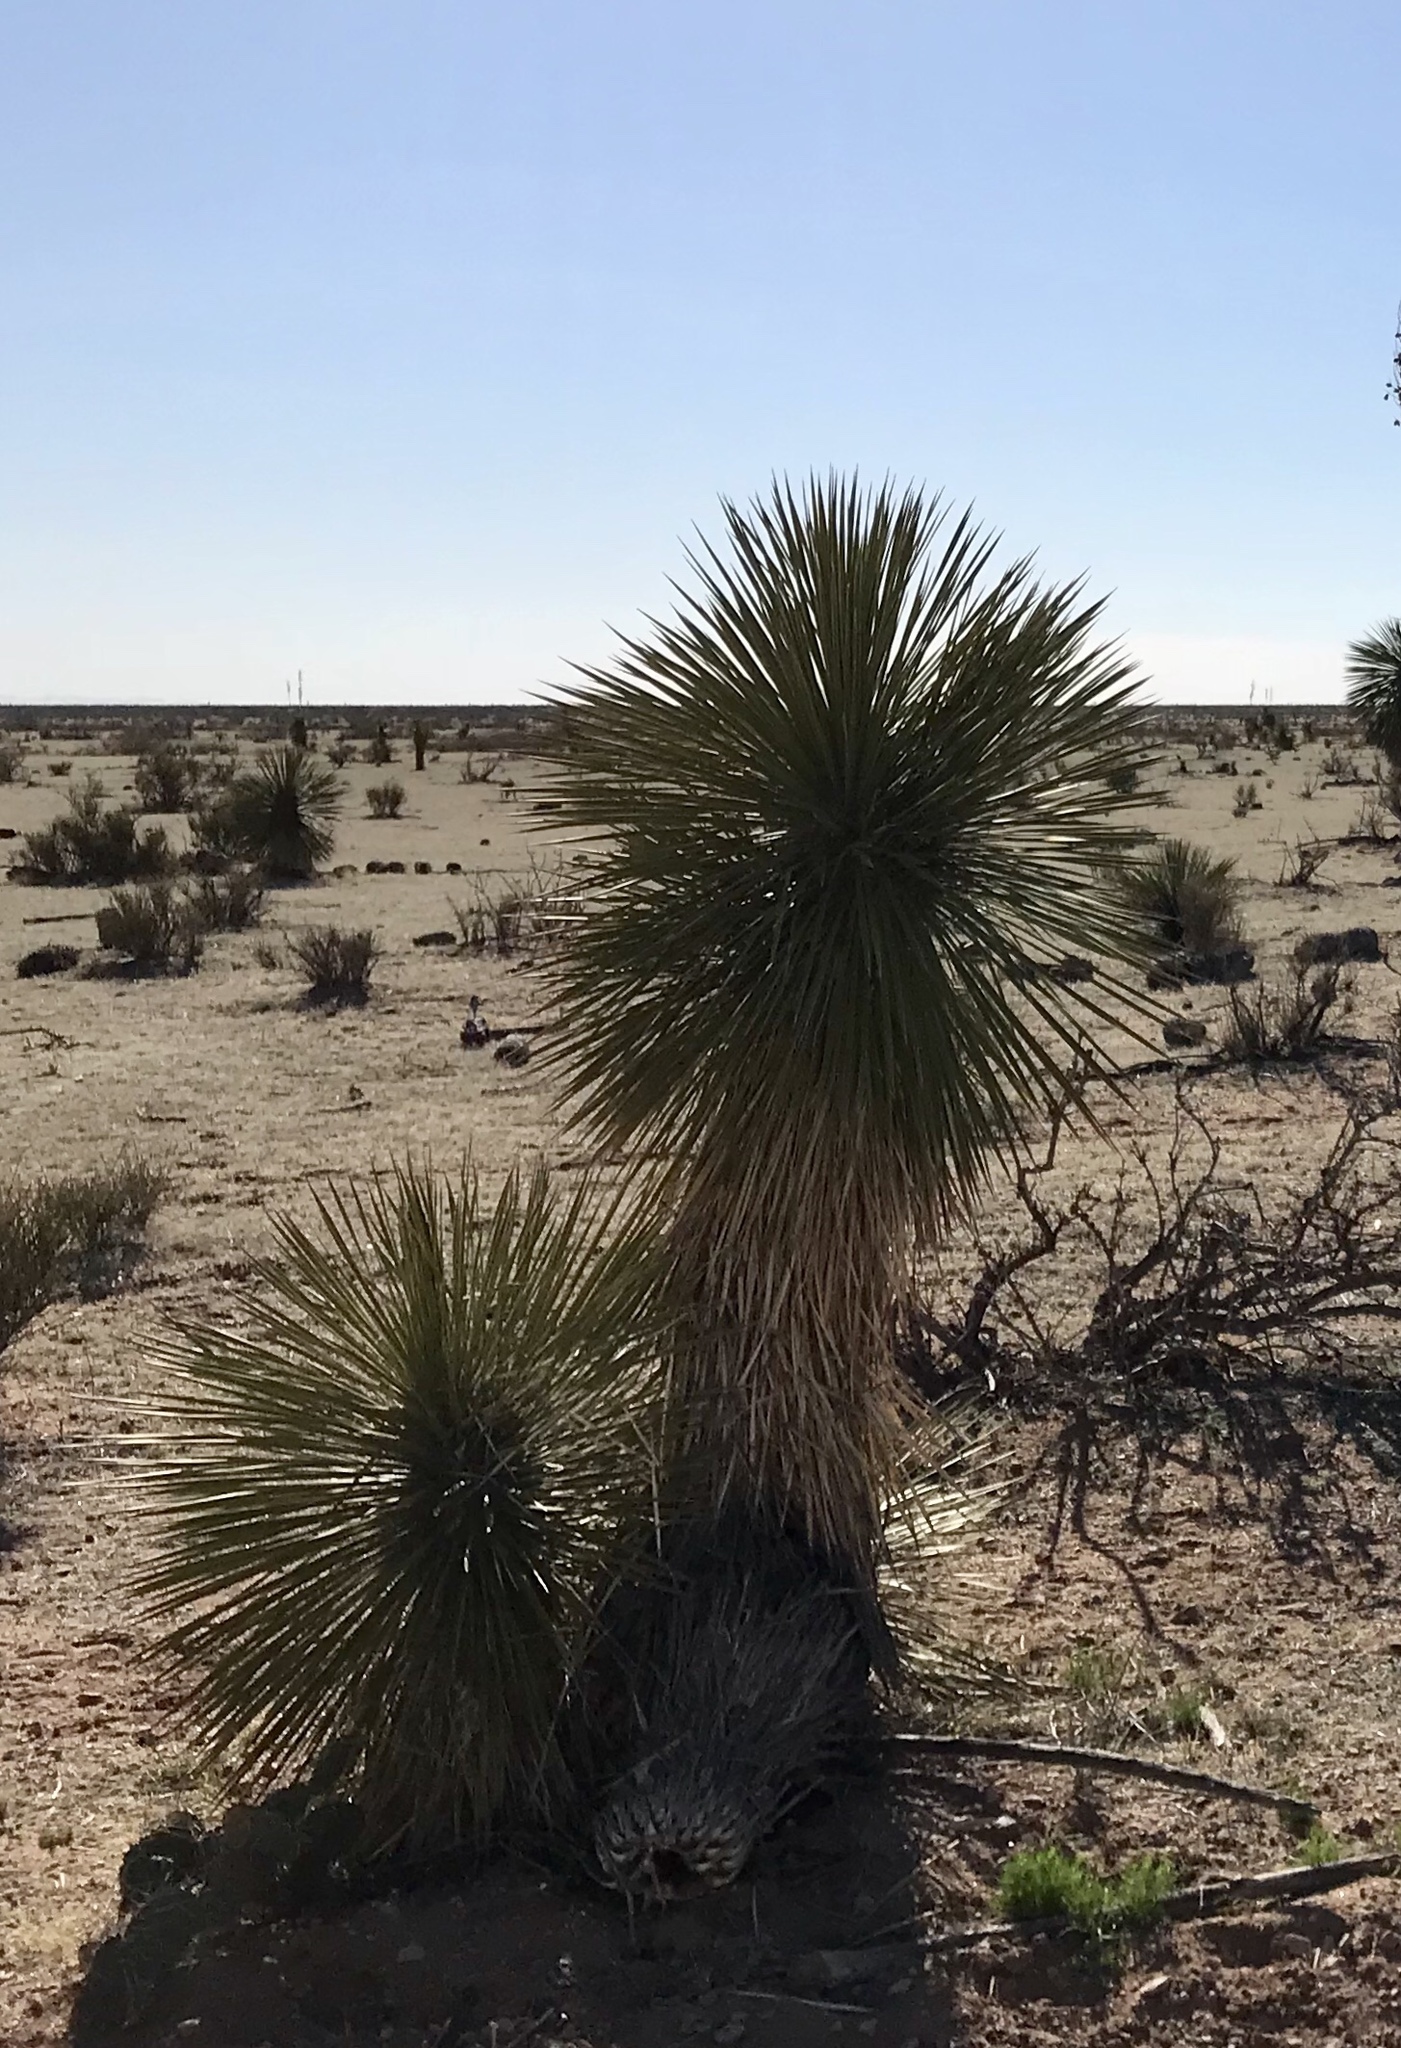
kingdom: Plantae
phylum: Tracheophyta
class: Liliopsida
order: Asparagales
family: Asparagaceae
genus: Yucca
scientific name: Yucca elata
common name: Palmella
